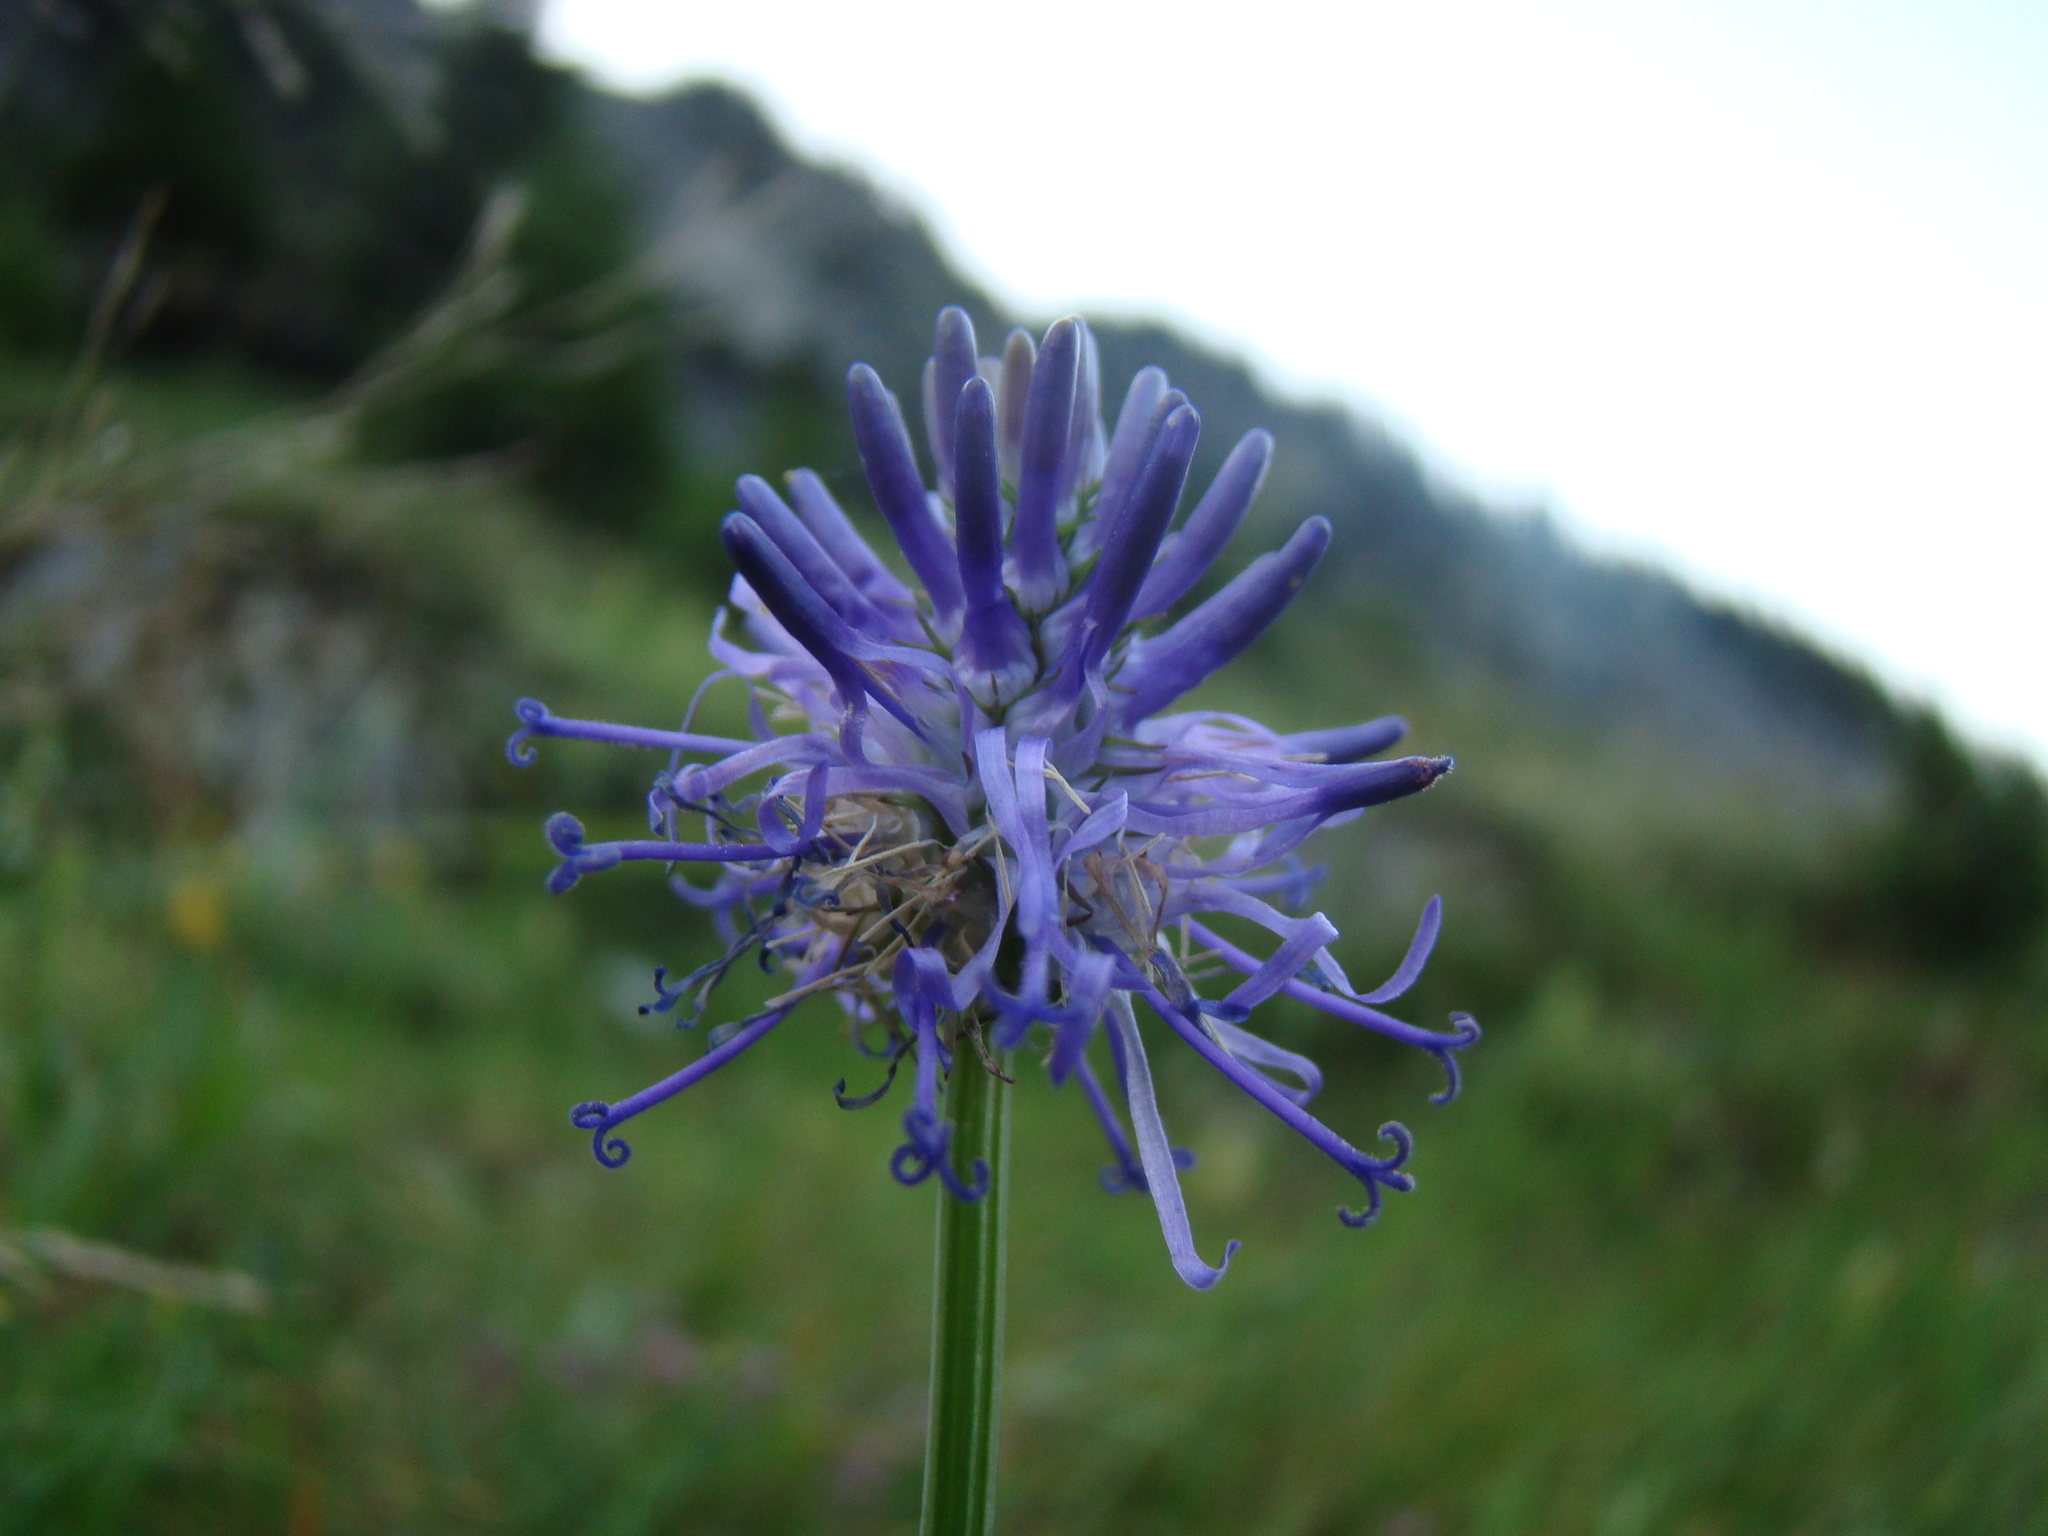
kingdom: Plantae
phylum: Tracheophyta
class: Magnoliopsida
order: Asterales
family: Campanulaceae
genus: Phyteuma
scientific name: Phyteuma betonicifolium
